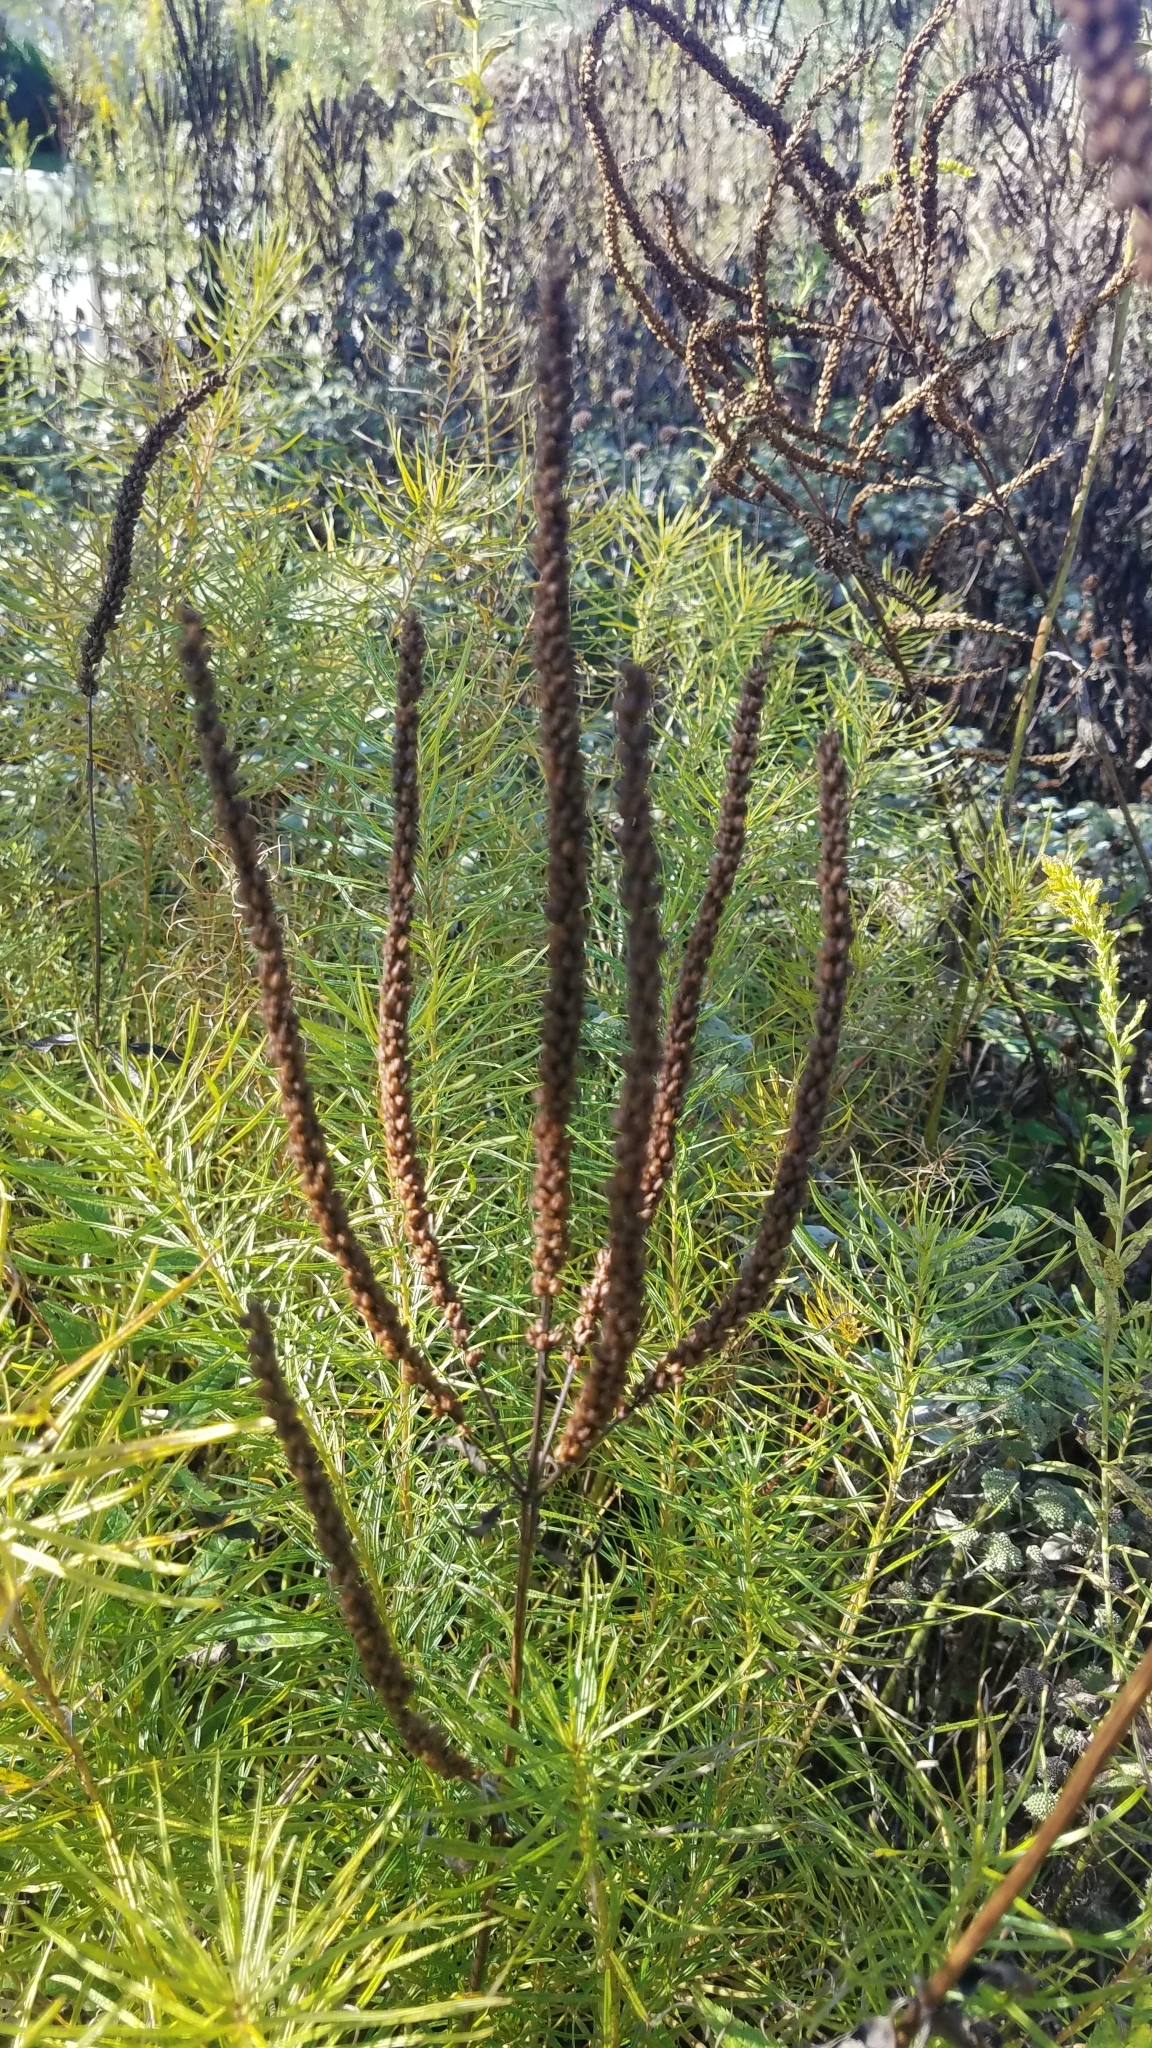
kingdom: Plantae
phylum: Tracheophyta
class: Magnoliopsida
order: Lamiales
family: Plantaginaceae
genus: Veronicastrum
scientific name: Veronicastrum virginicum
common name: Blackroot
